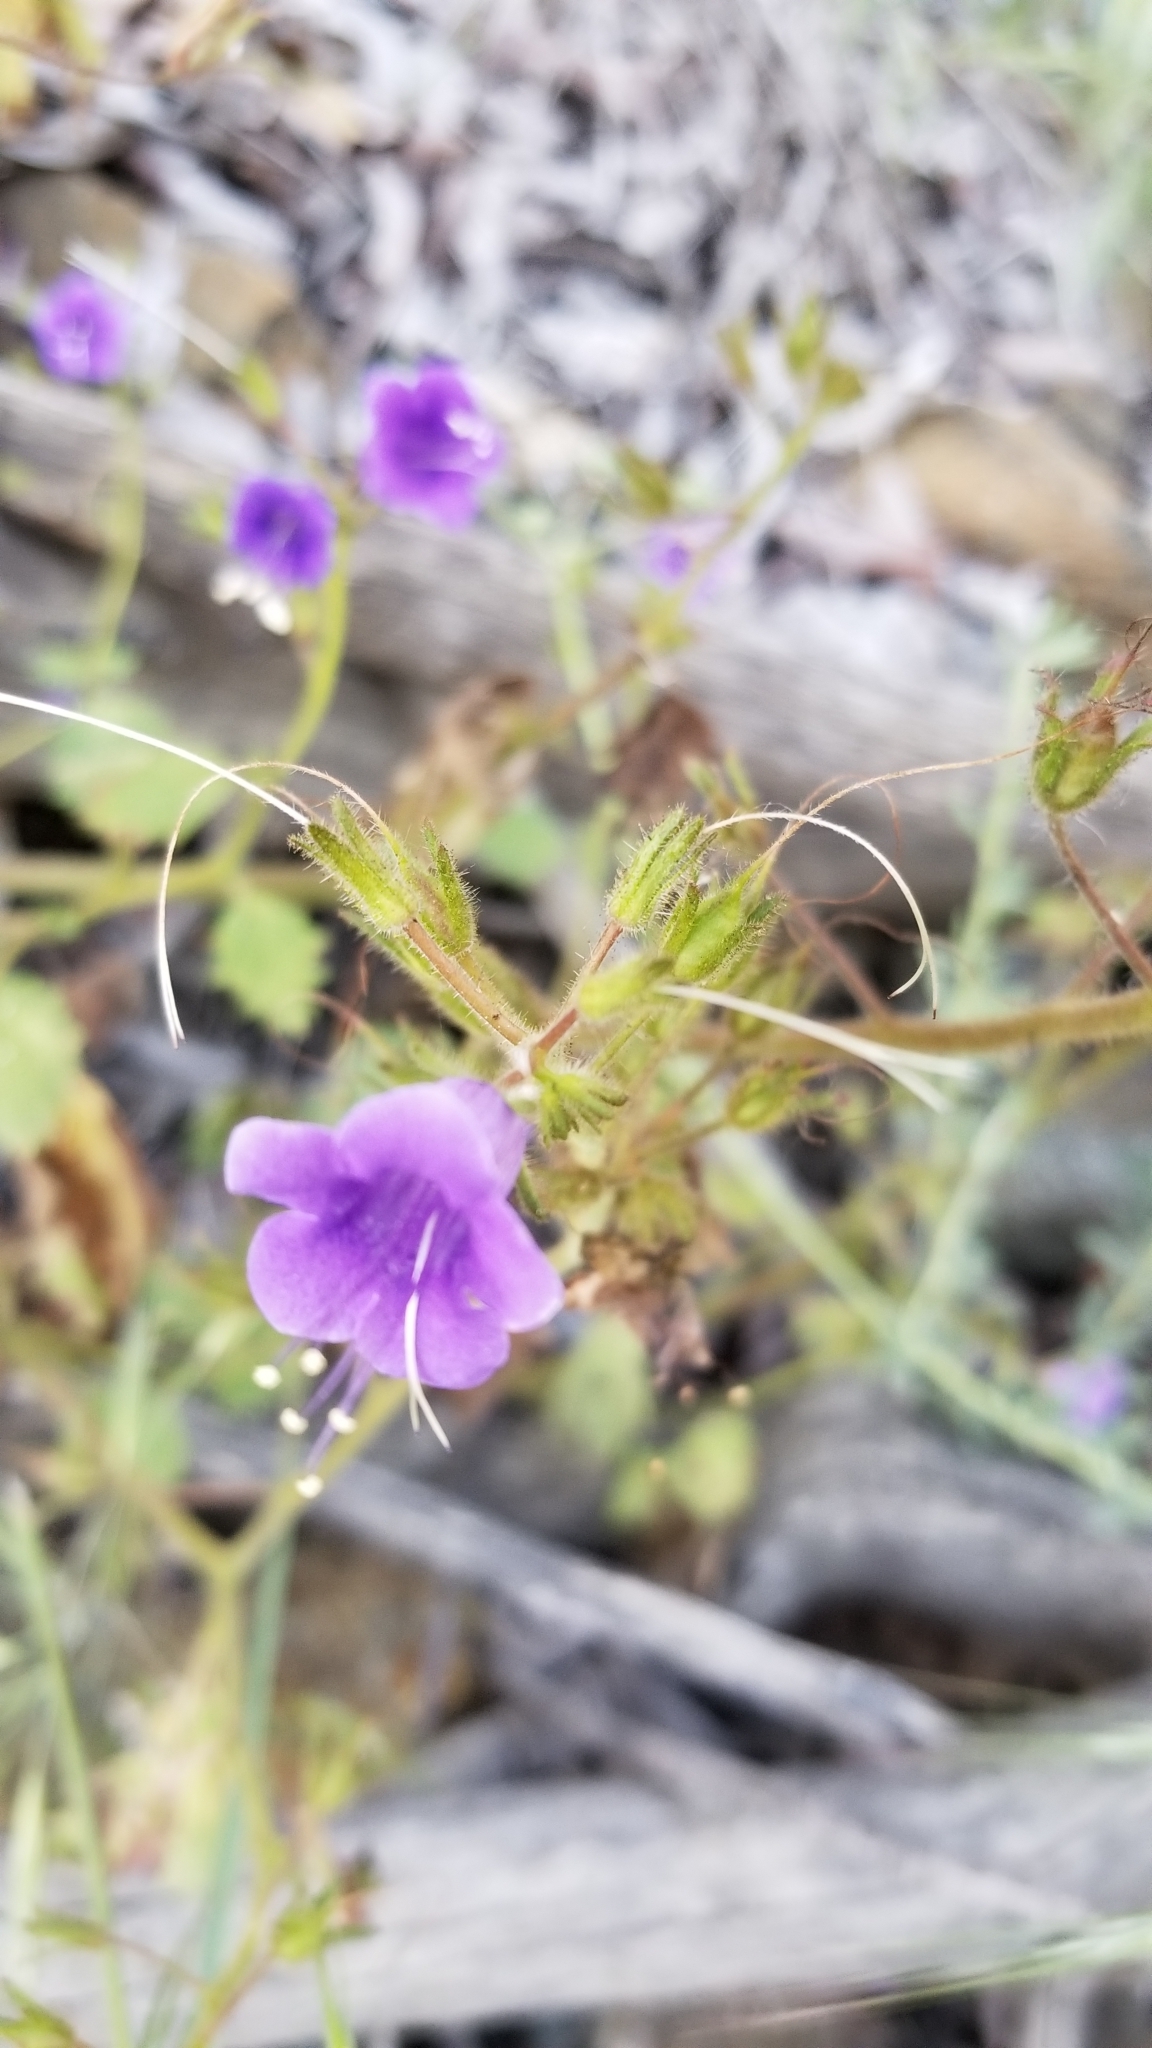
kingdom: Plantae
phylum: Tracheophyta
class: Magnoliopsida
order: Boraginales
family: Hydrophyllaceae
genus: Phacelia
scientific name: Phacelia minor
